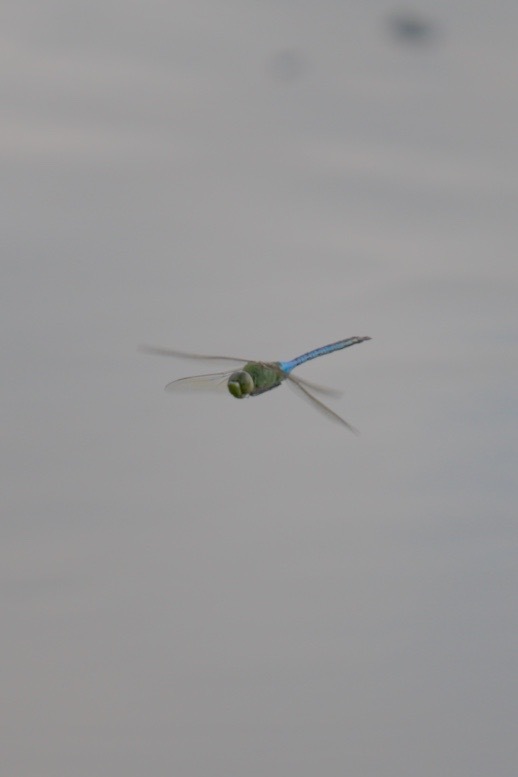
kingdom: Animalia
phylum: Arthropoda
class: Insecta
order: Odonata
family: Aeshnidae
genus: Anax
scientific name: Anax junius
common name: Common green darner
